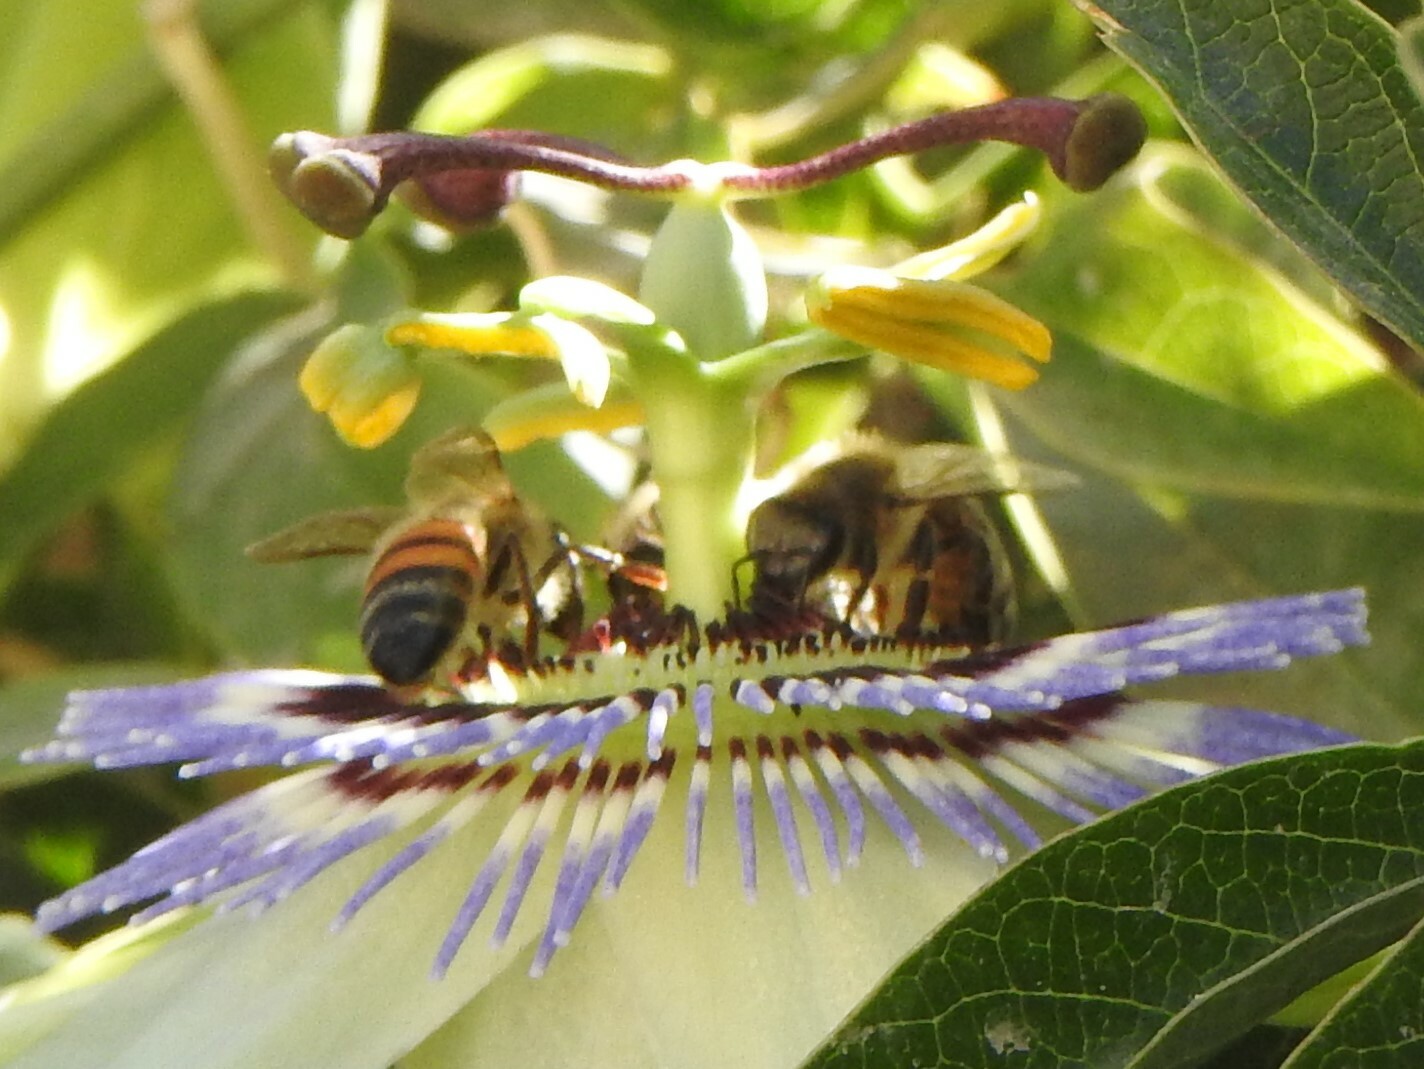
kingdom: Animalia
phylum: Arthropoda
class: Insecta
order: Hymenoptera
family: Apidae
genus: Apis
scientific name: Apis mellifera
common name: Honey bee
